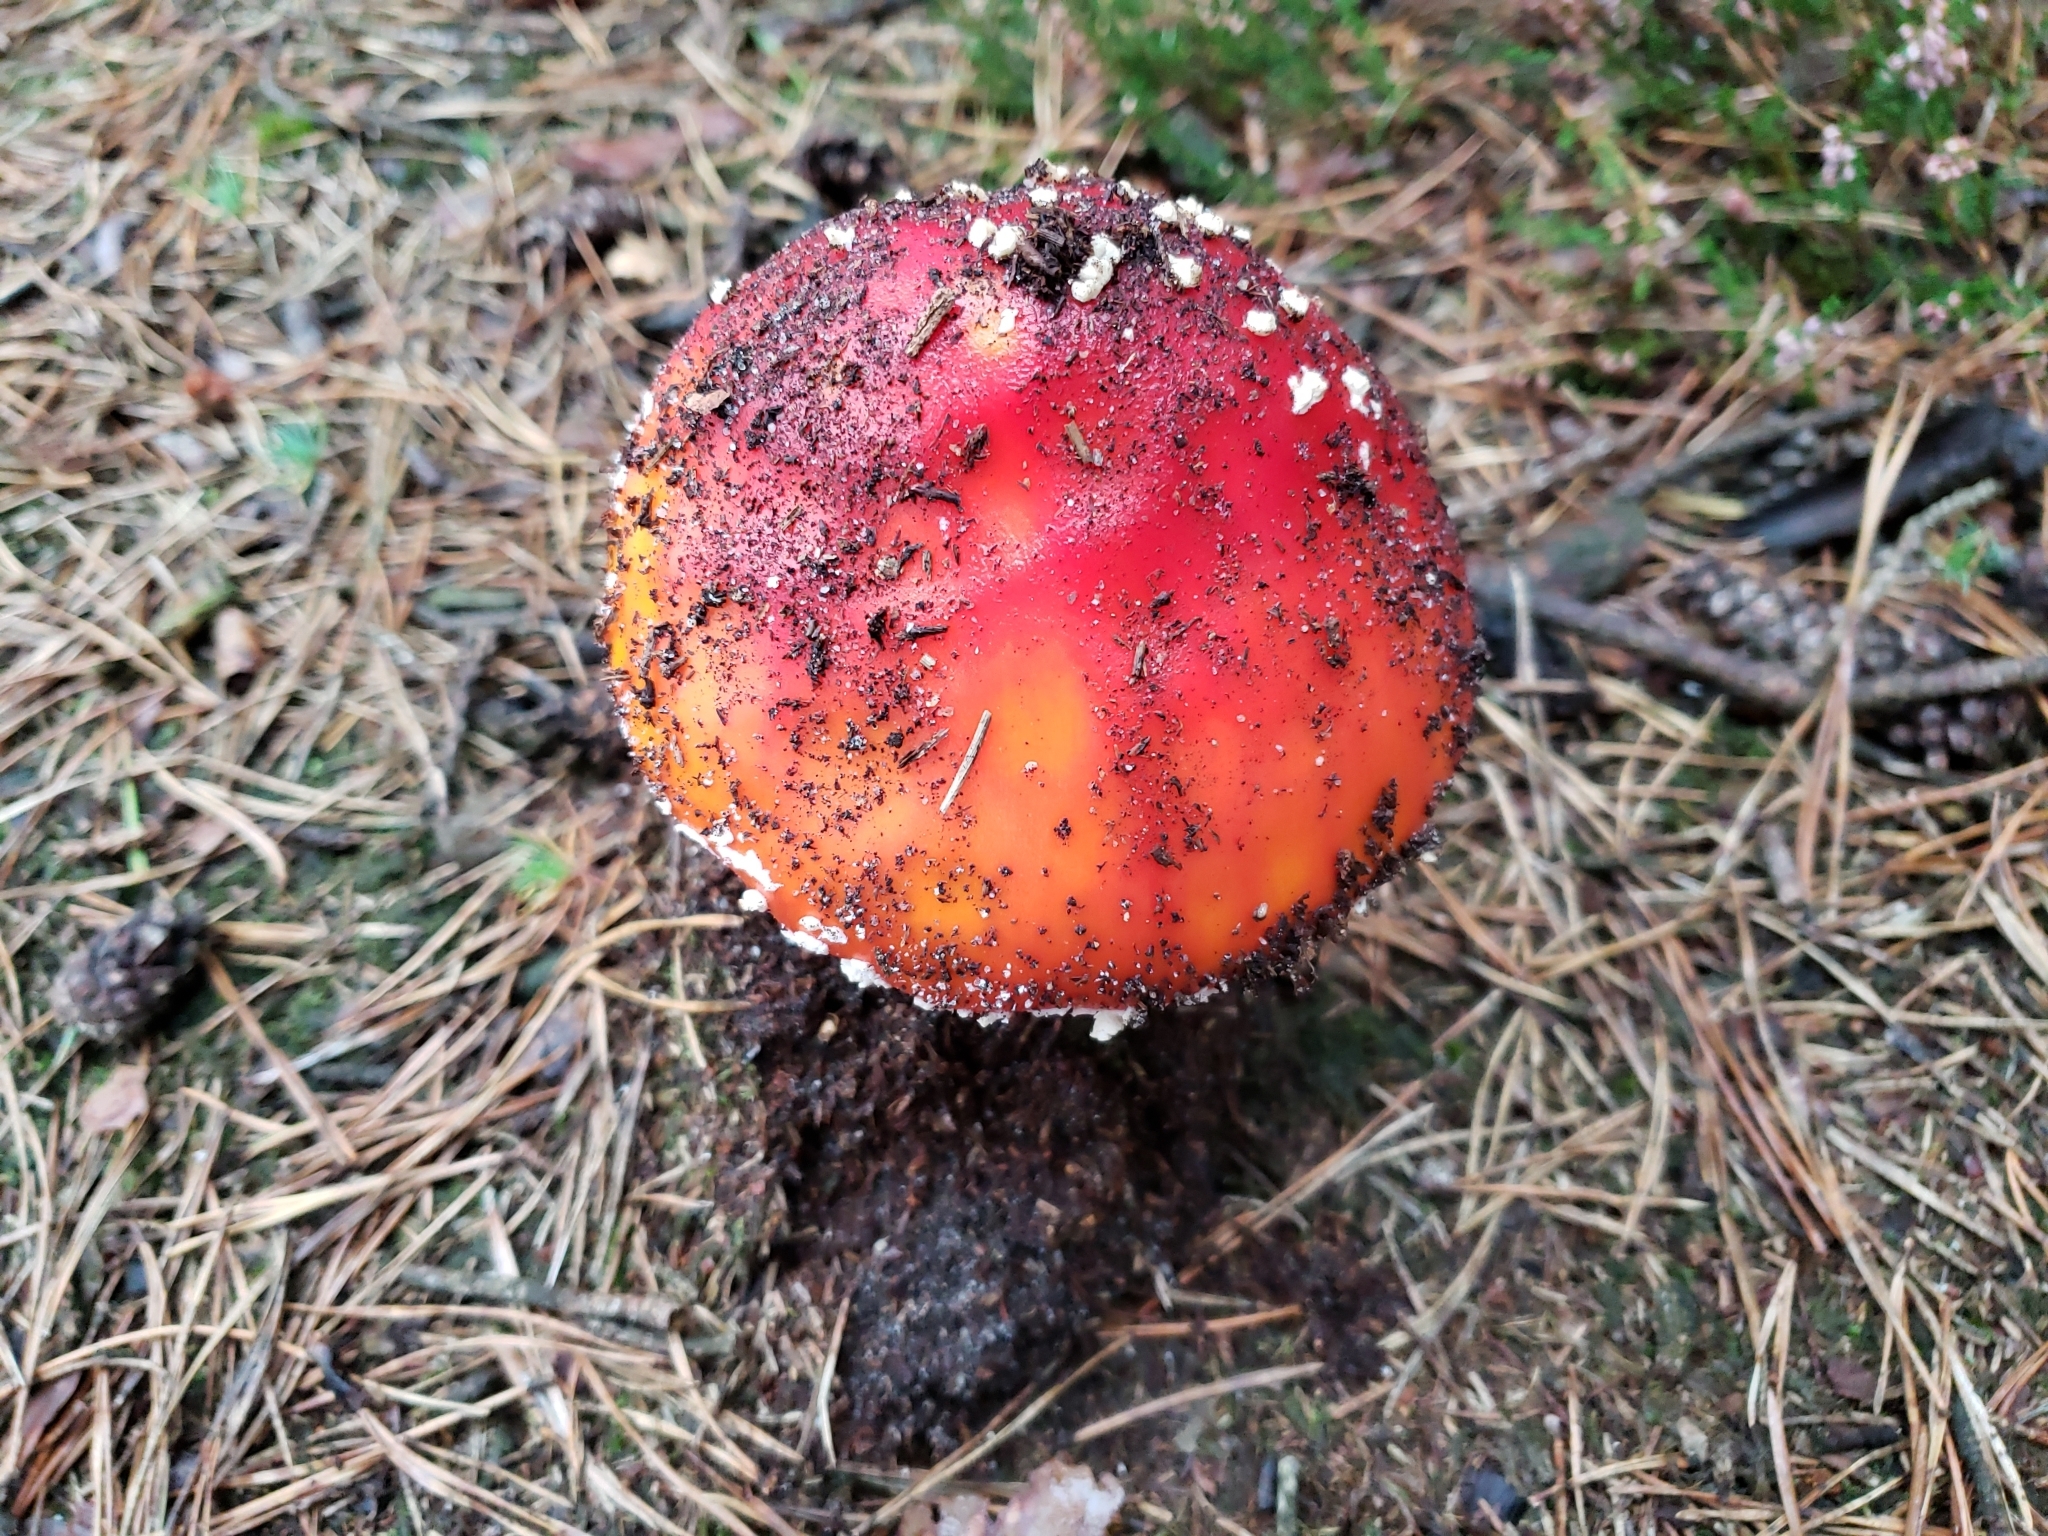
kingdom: Fungi
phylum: Basidiomycota
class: Agaricomycetes
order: Agaricales
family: Amanitaceae
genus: Amanita
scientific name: Amanita muscaria
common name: Fly agaric
